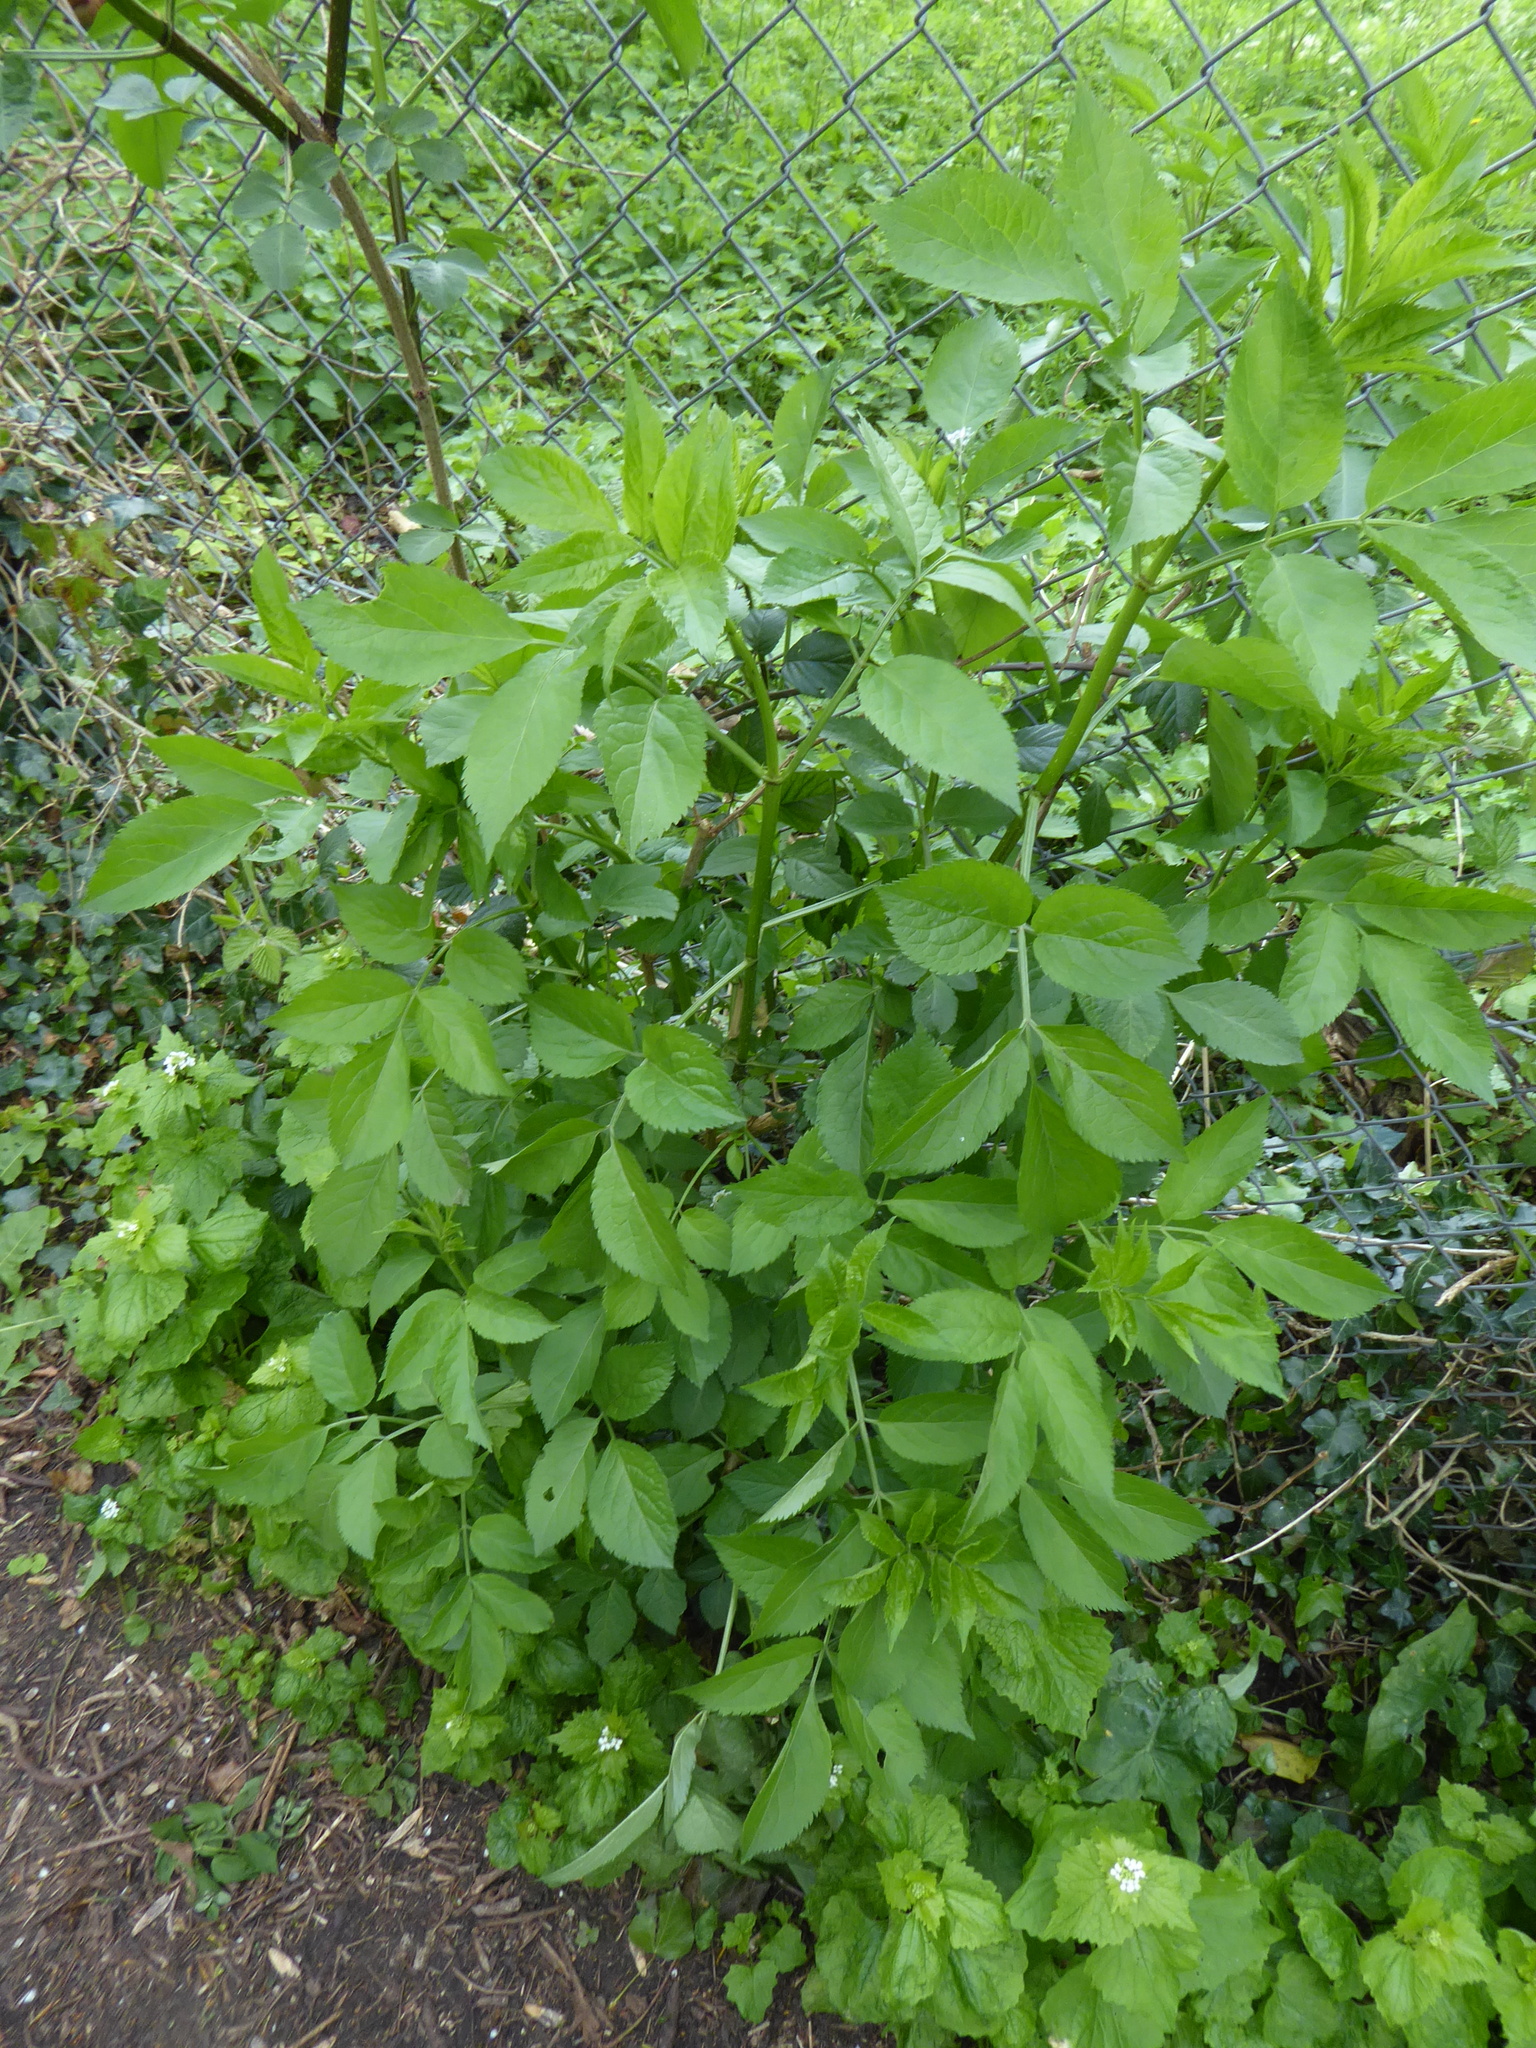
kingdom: Plantae
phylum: Tracheophyta
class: Magnoliopsida
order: Dipsacales
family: Viburnaceae
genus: Sambucus
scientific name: Sambucus nigra
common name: Elder
